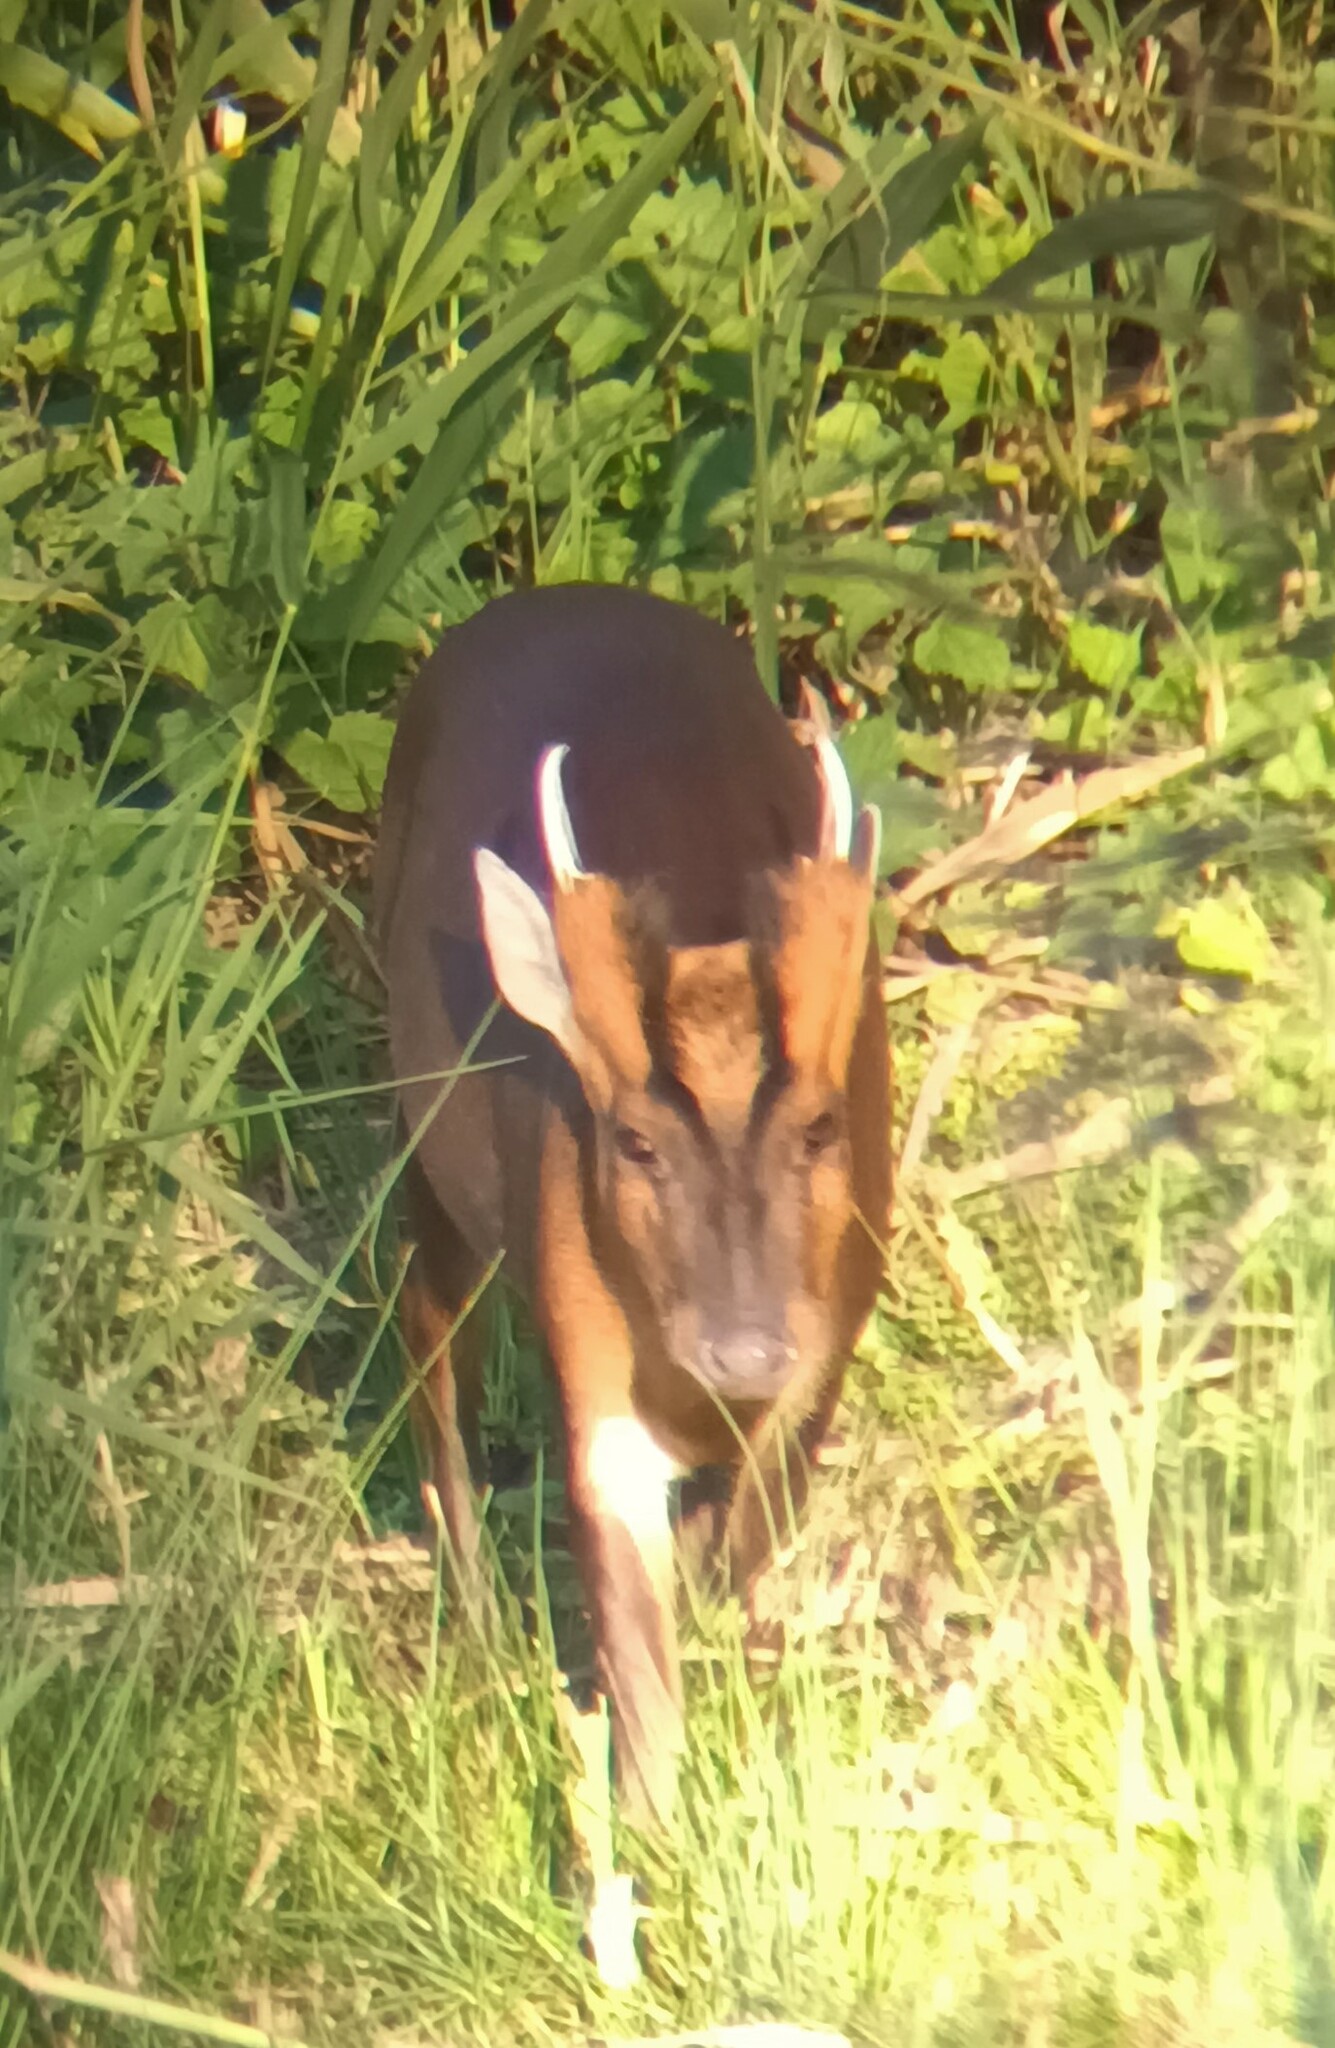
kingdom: Animalia
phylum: Chordata
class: Mammalia
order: Artiodactyla
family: Cervidae
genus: Muntiacus
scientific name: Muntiacus reevesi
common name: Reeves' muntjac
